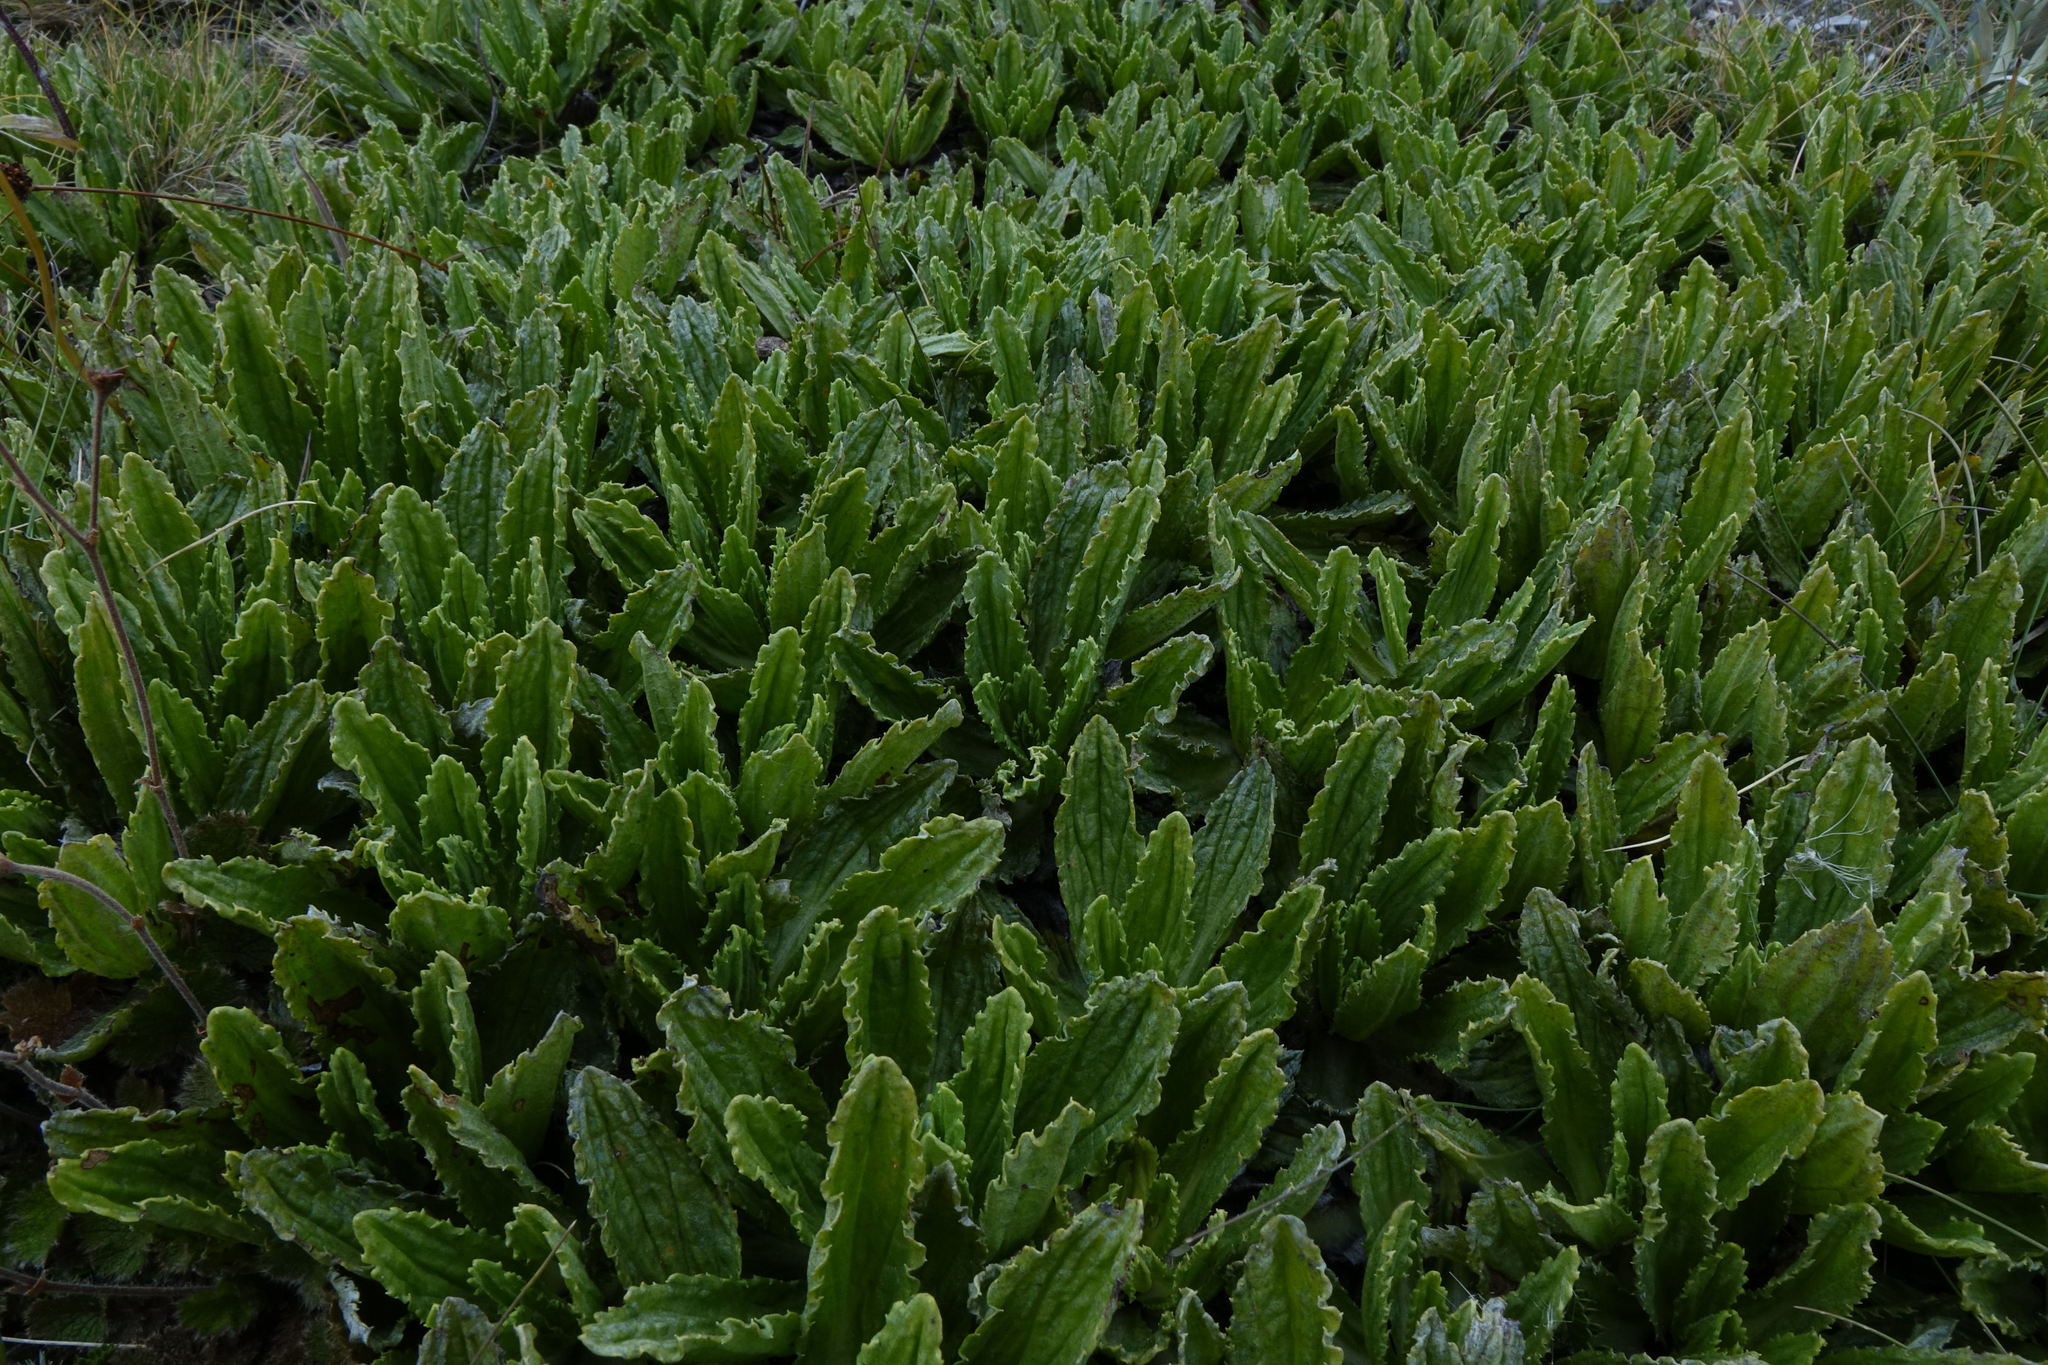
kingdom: Plantae
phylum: Tracheophyta
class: Magnoliopsida
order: Asterales
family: Asteraceae
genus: Celmisia
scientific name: Celmisia prorepens
